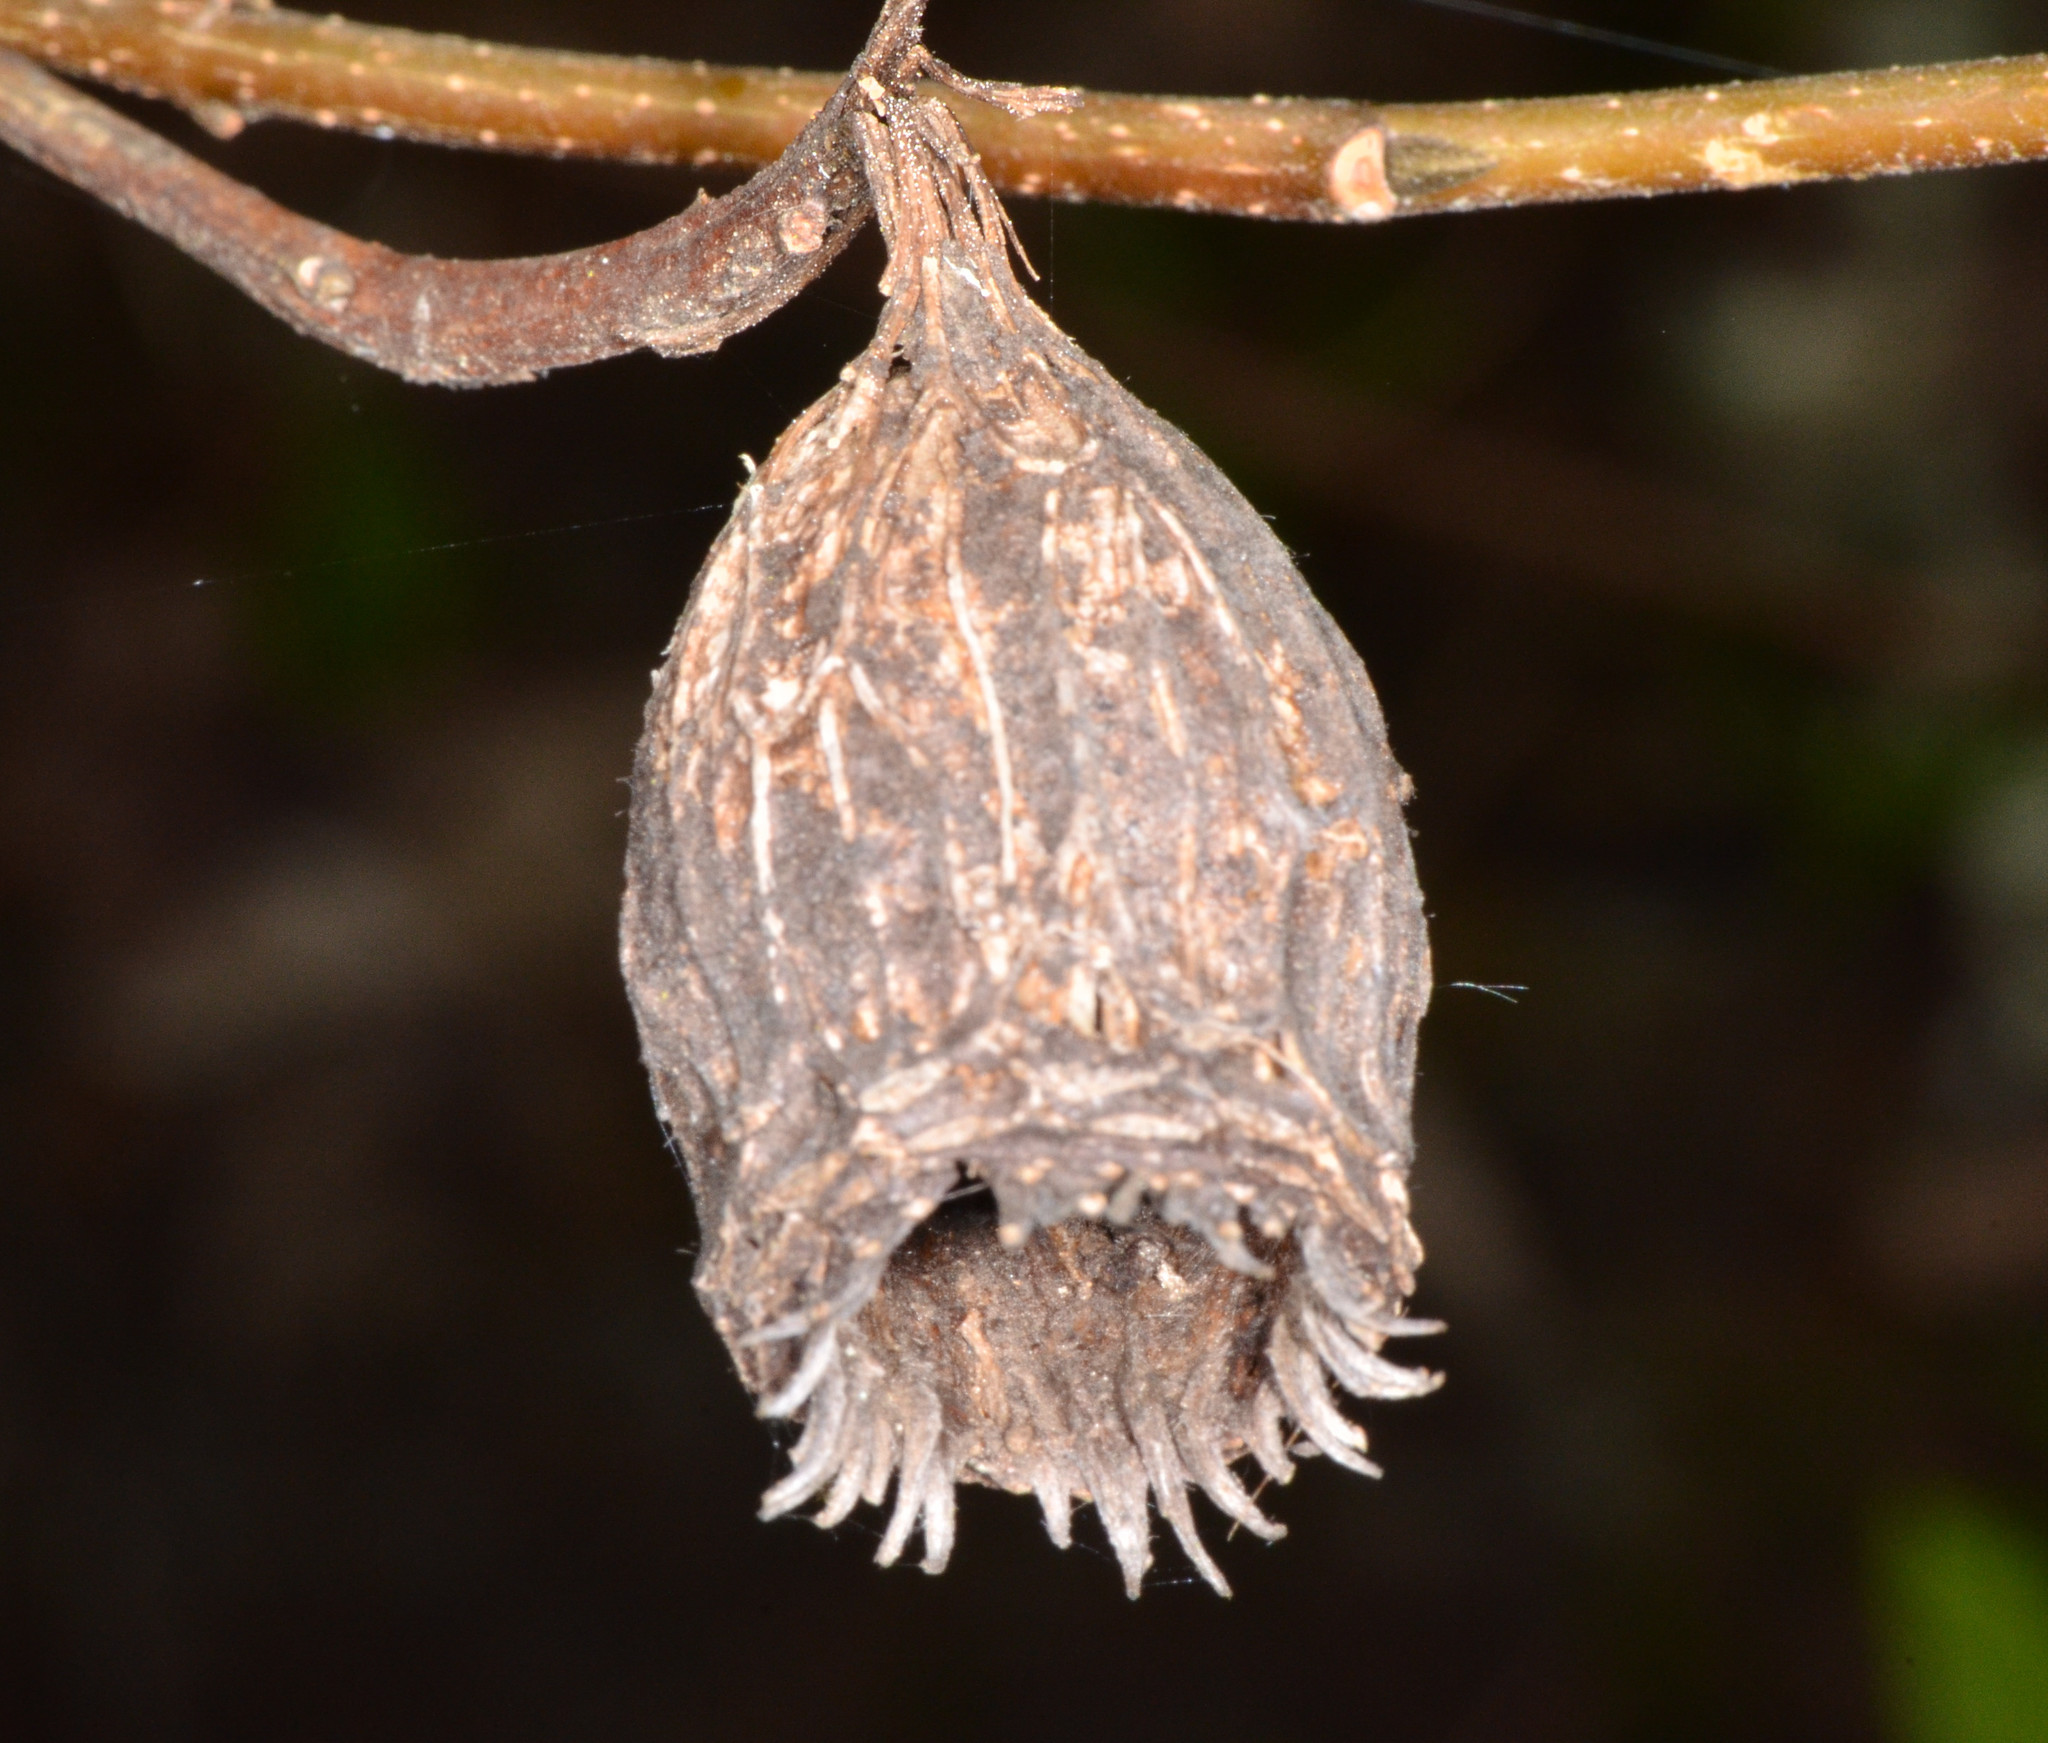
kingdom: Plantae
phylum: Tracheophyta
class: Magnoliopsida
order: Laurales
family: Calycanthaceae
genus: Calycanthus
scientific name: Calycanthus occidentalis
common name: California spicebush
